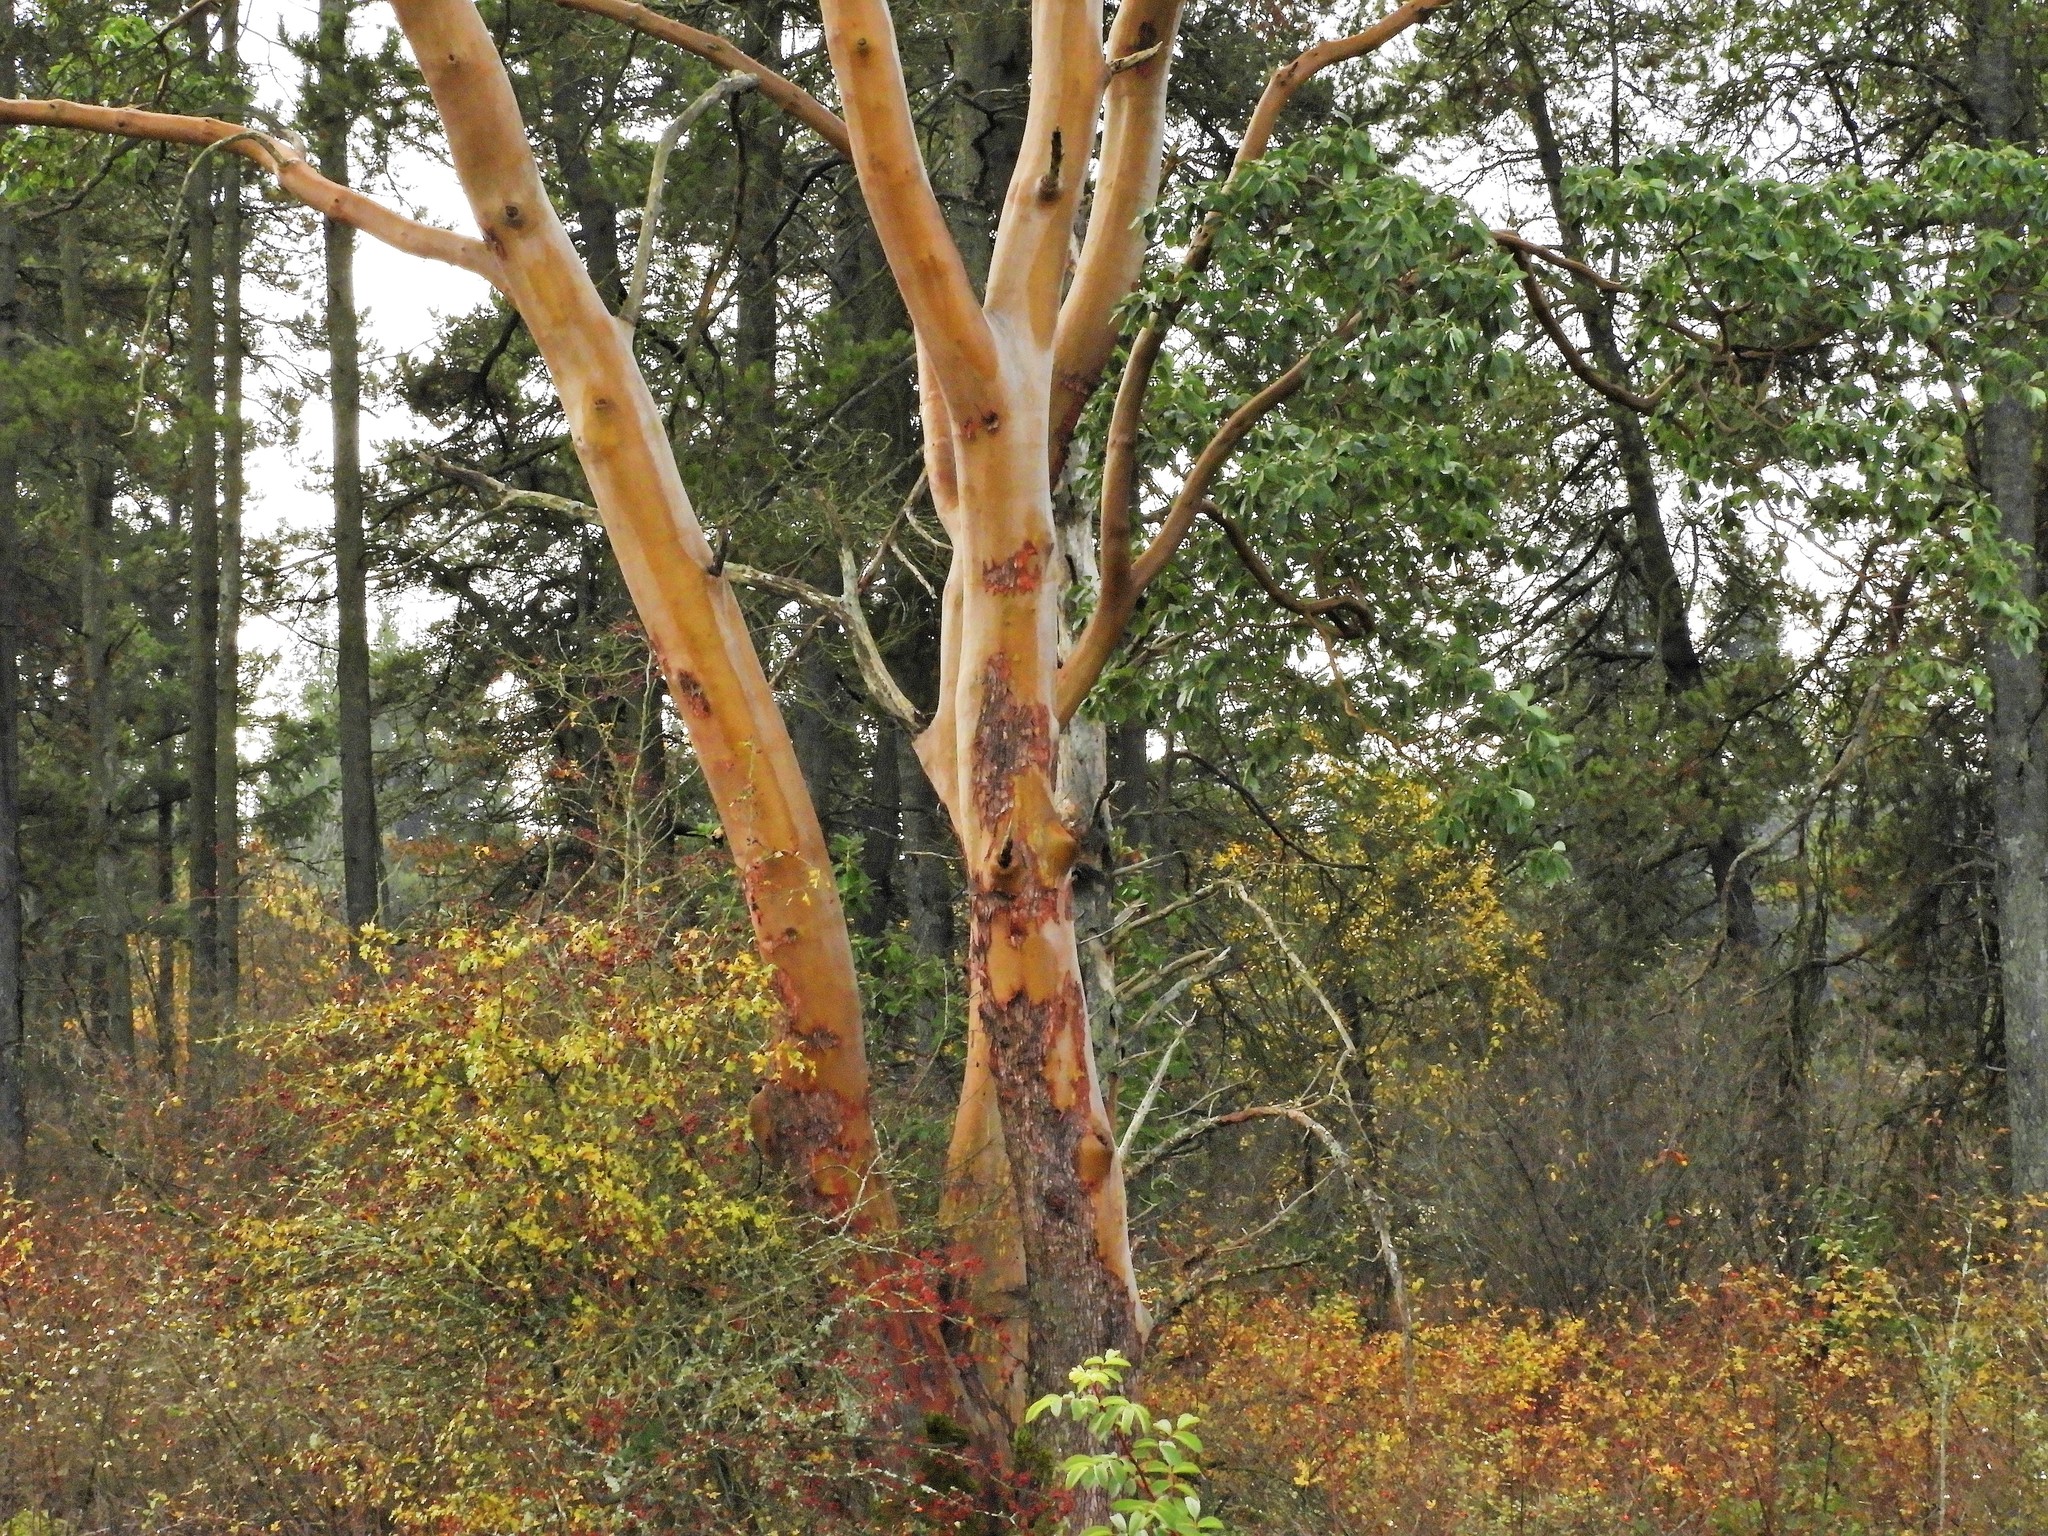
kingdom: Plantae
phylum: Tracheophyta
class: Magnoliopsida
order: Ericales
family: Ericaceae
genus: Arbutus
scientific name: Arbutus menziesii
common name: Pacific madrone
